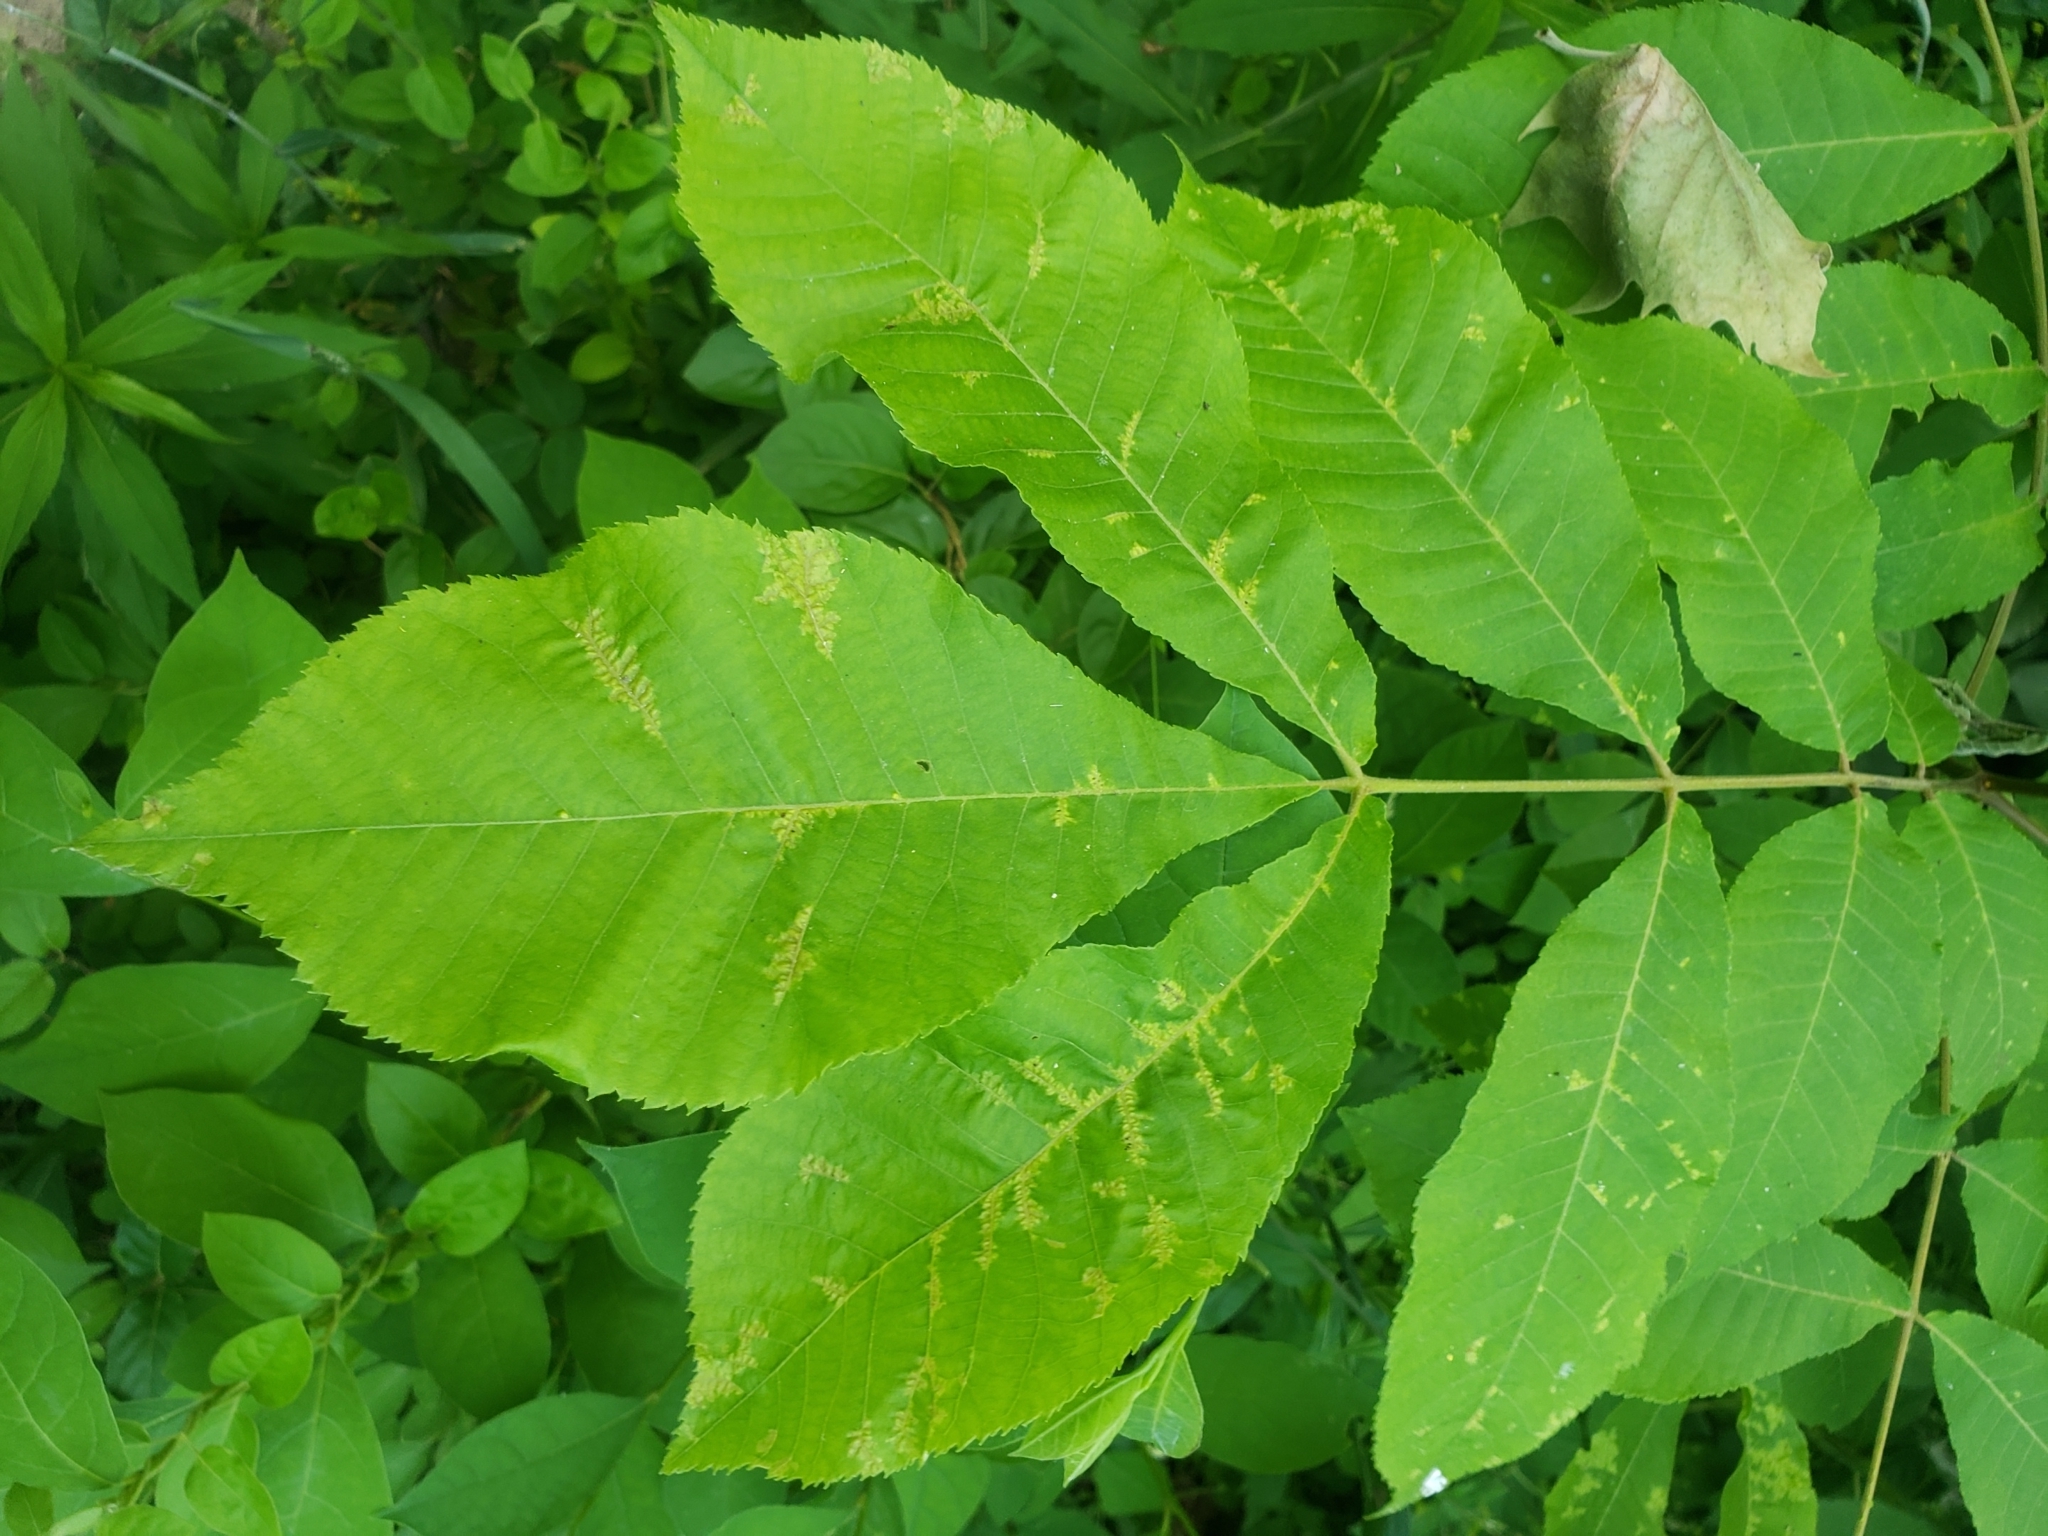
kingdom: Fungi
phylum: Basidiomycota
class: Exobasidiomycetes
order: Microstromatales
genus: Pseudomicrostroma
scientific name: Pseudomicrostroma juglandis
